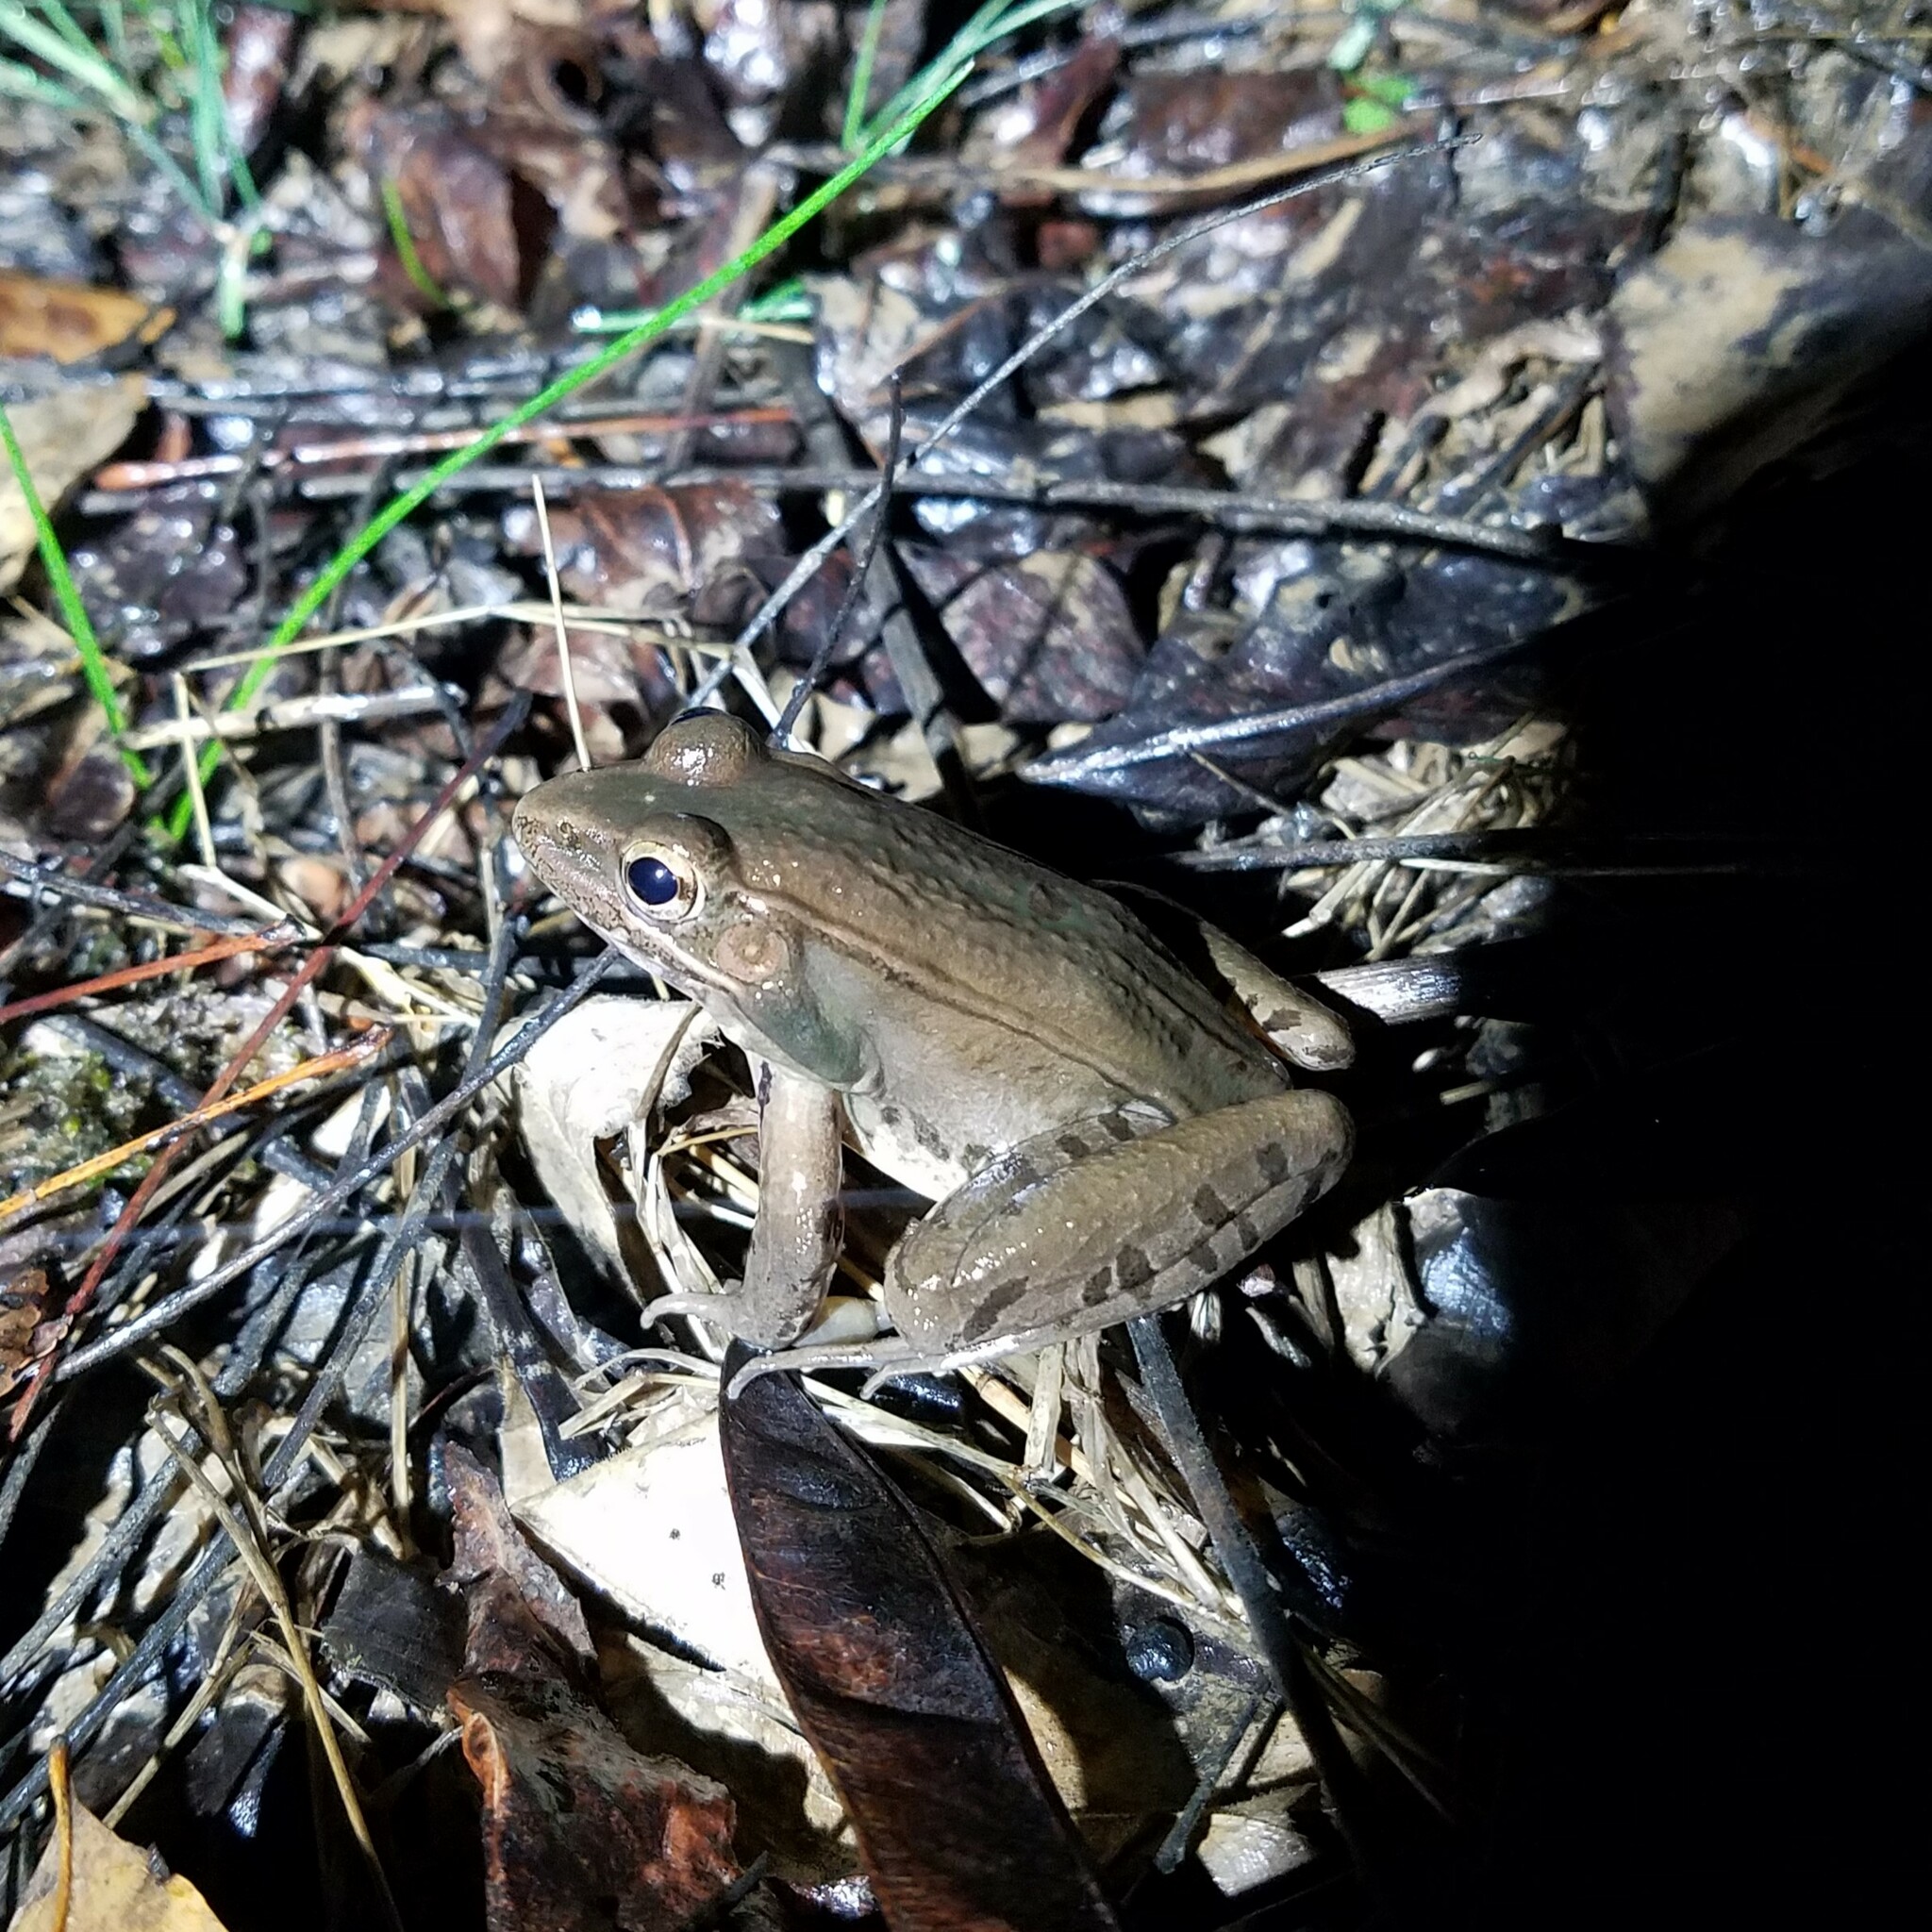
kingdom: Animalia
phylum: Chordata
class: Amphibia
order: Anura
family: Ranidae
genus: Lithobates
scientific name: Lithobates clamitans
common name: Green frog
